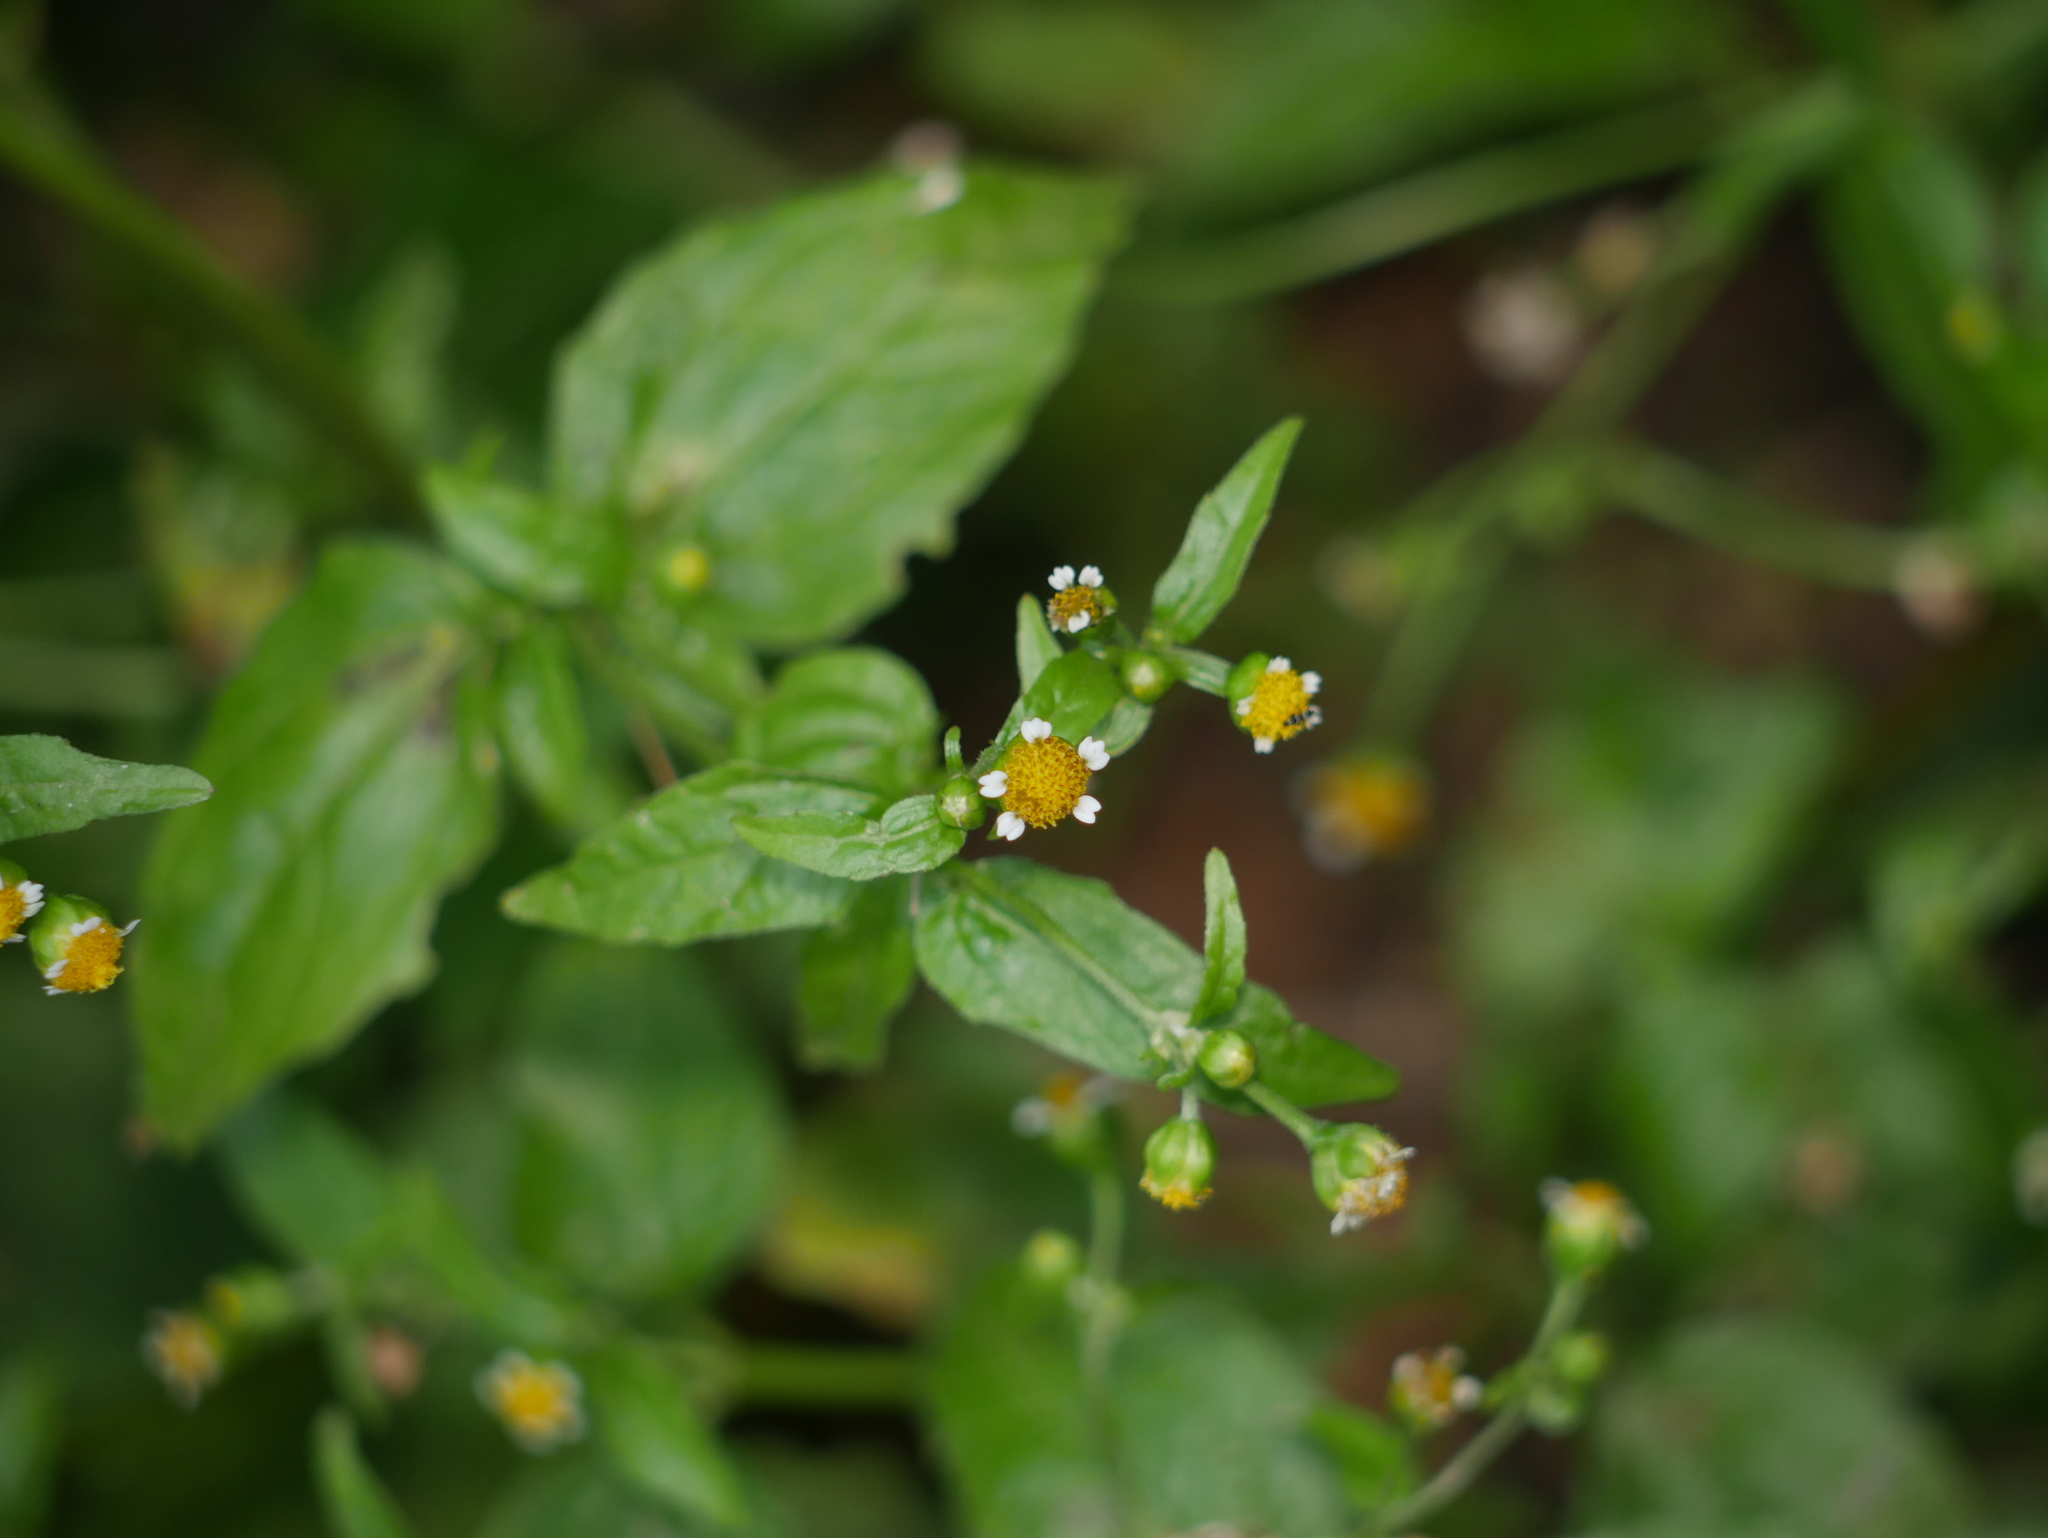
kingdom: Plantae
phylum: Tracheophyta
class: Magnoliopsida
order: Asterales
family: Asteraceae
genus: Galinsoga
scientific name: Galinsoga parviflora
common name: Gallant soldier
